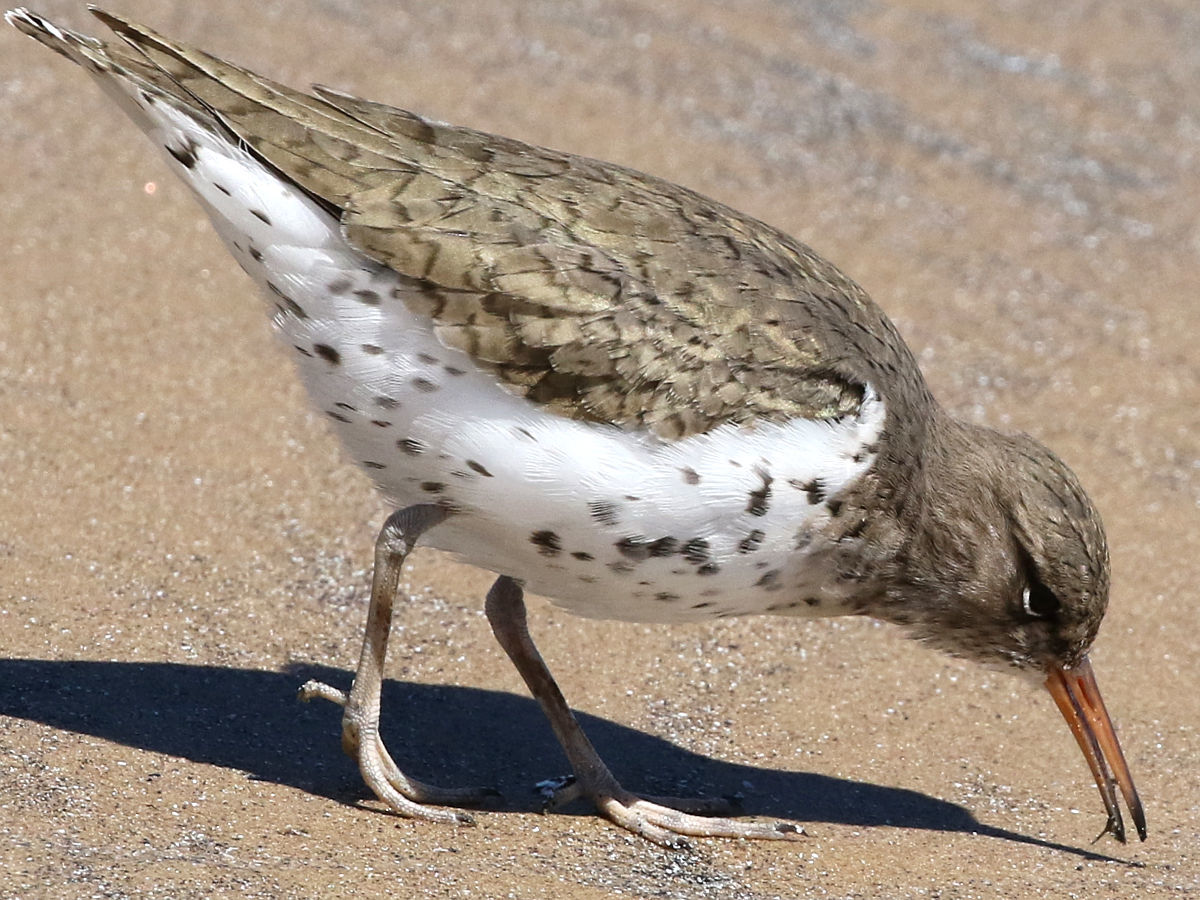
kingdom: Animalia
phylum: Chordata
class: Aves
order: Charadriiformes
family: Scolopacidae
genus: Actitis
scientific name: Actitis macularius
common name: Spotted sandpiper
